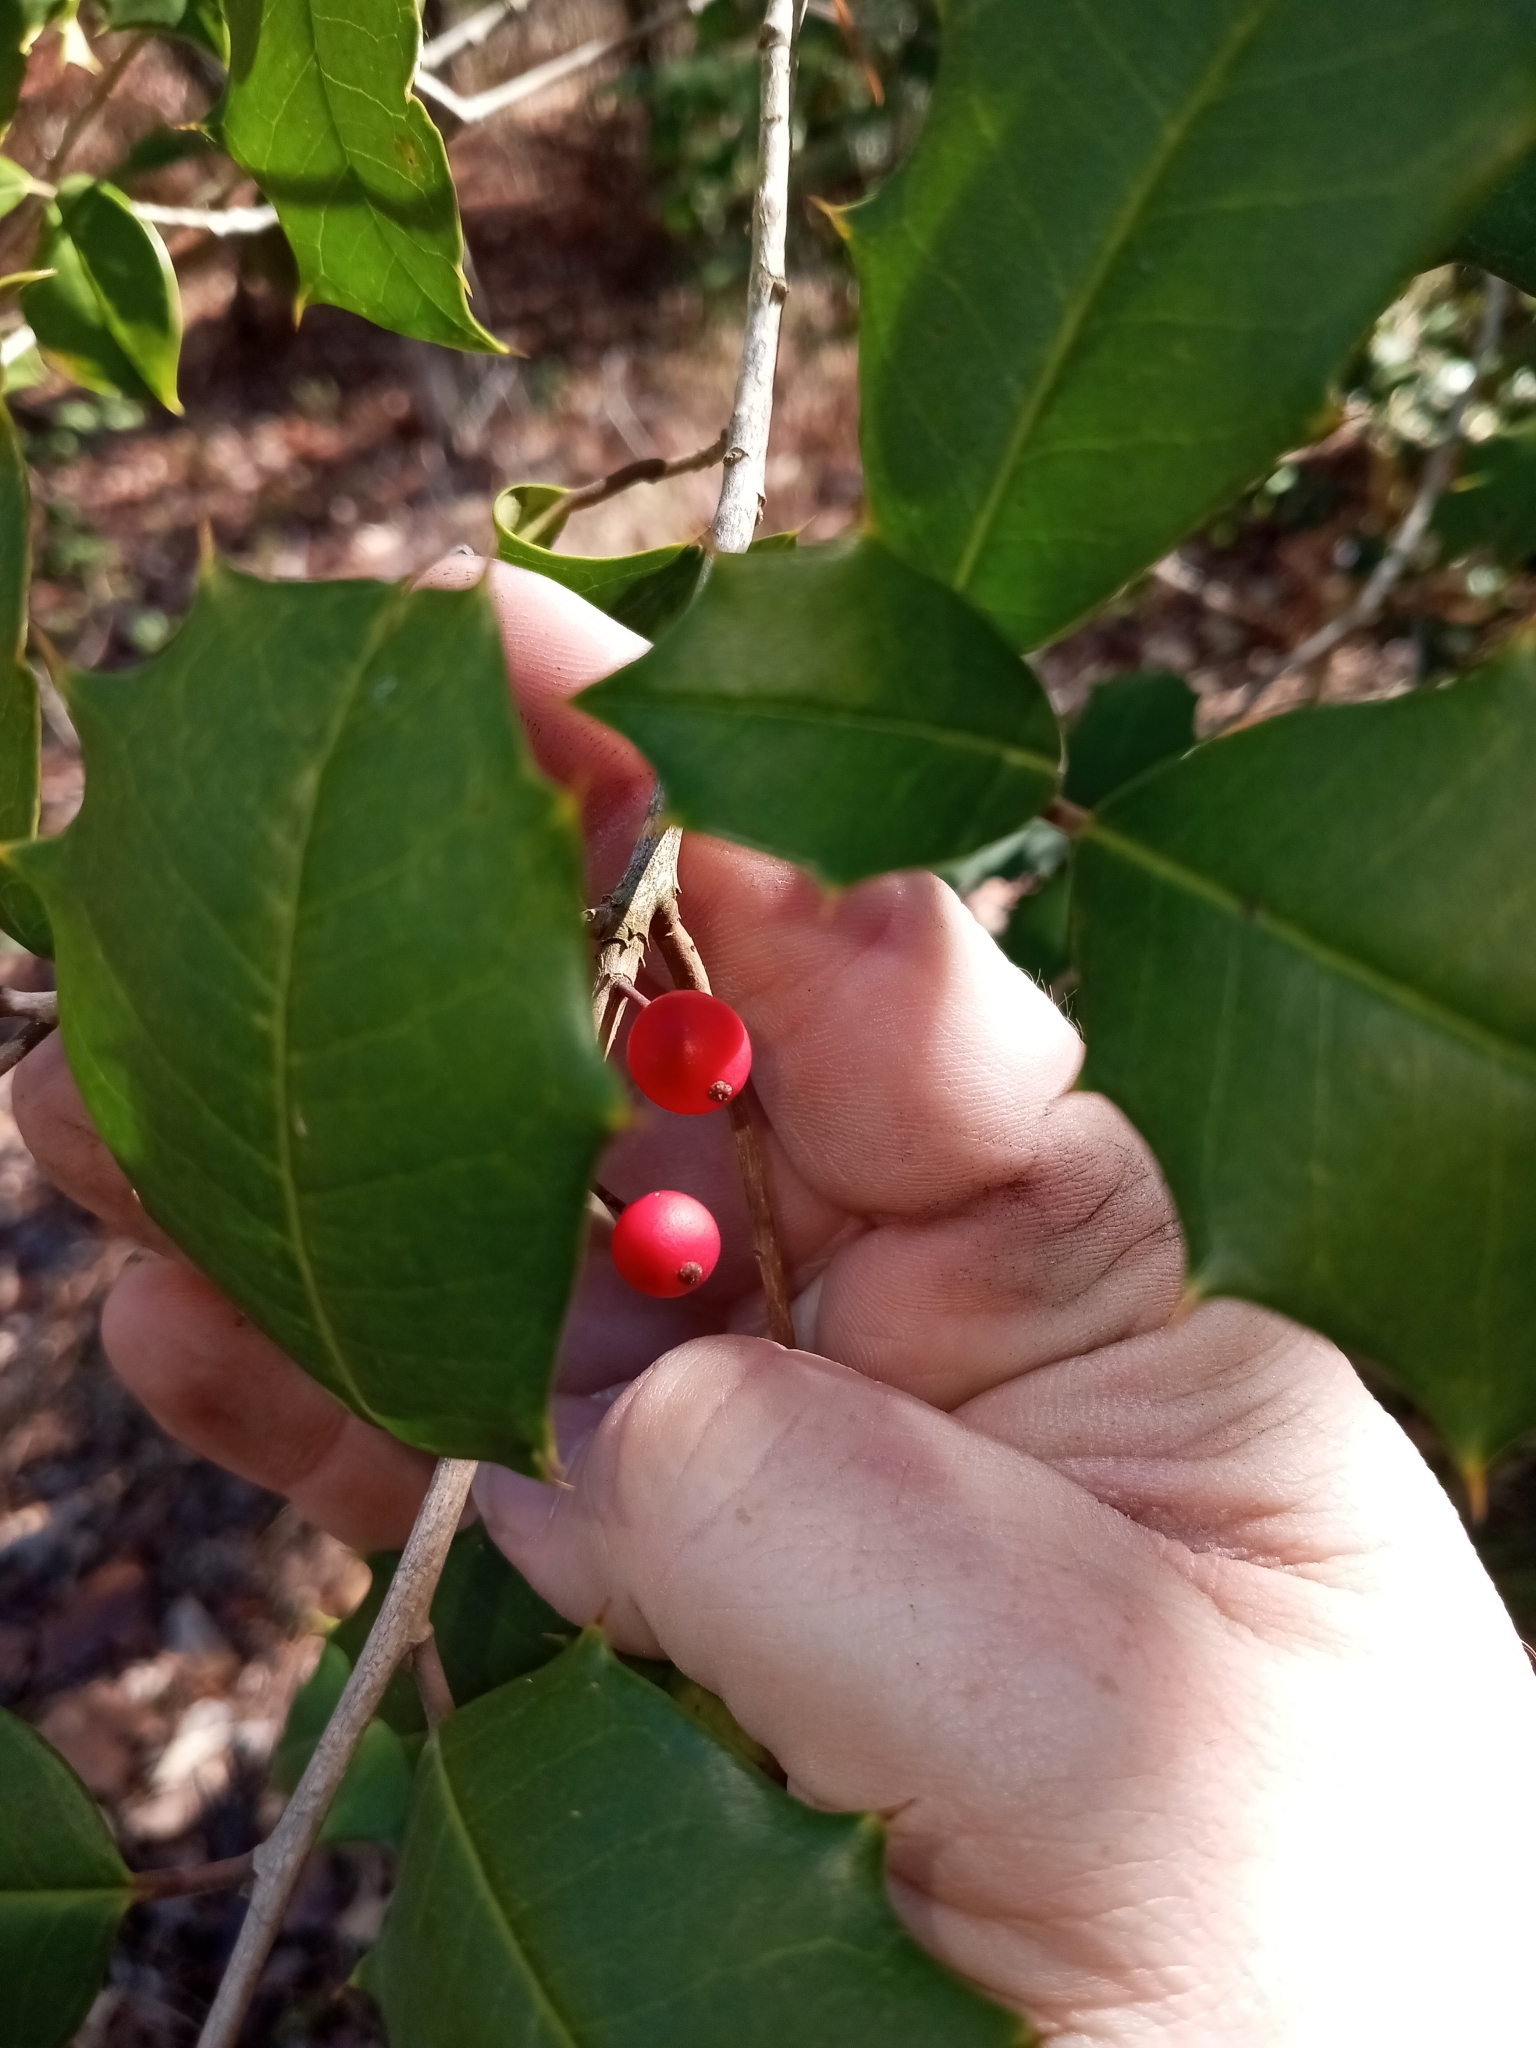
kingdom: Plantae
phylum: Tracheophyta
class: Magnoliopsida
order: Aquifoliales
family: Aquifoliaceae
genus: Ilex
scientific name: Ilex opaca
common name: American holly
